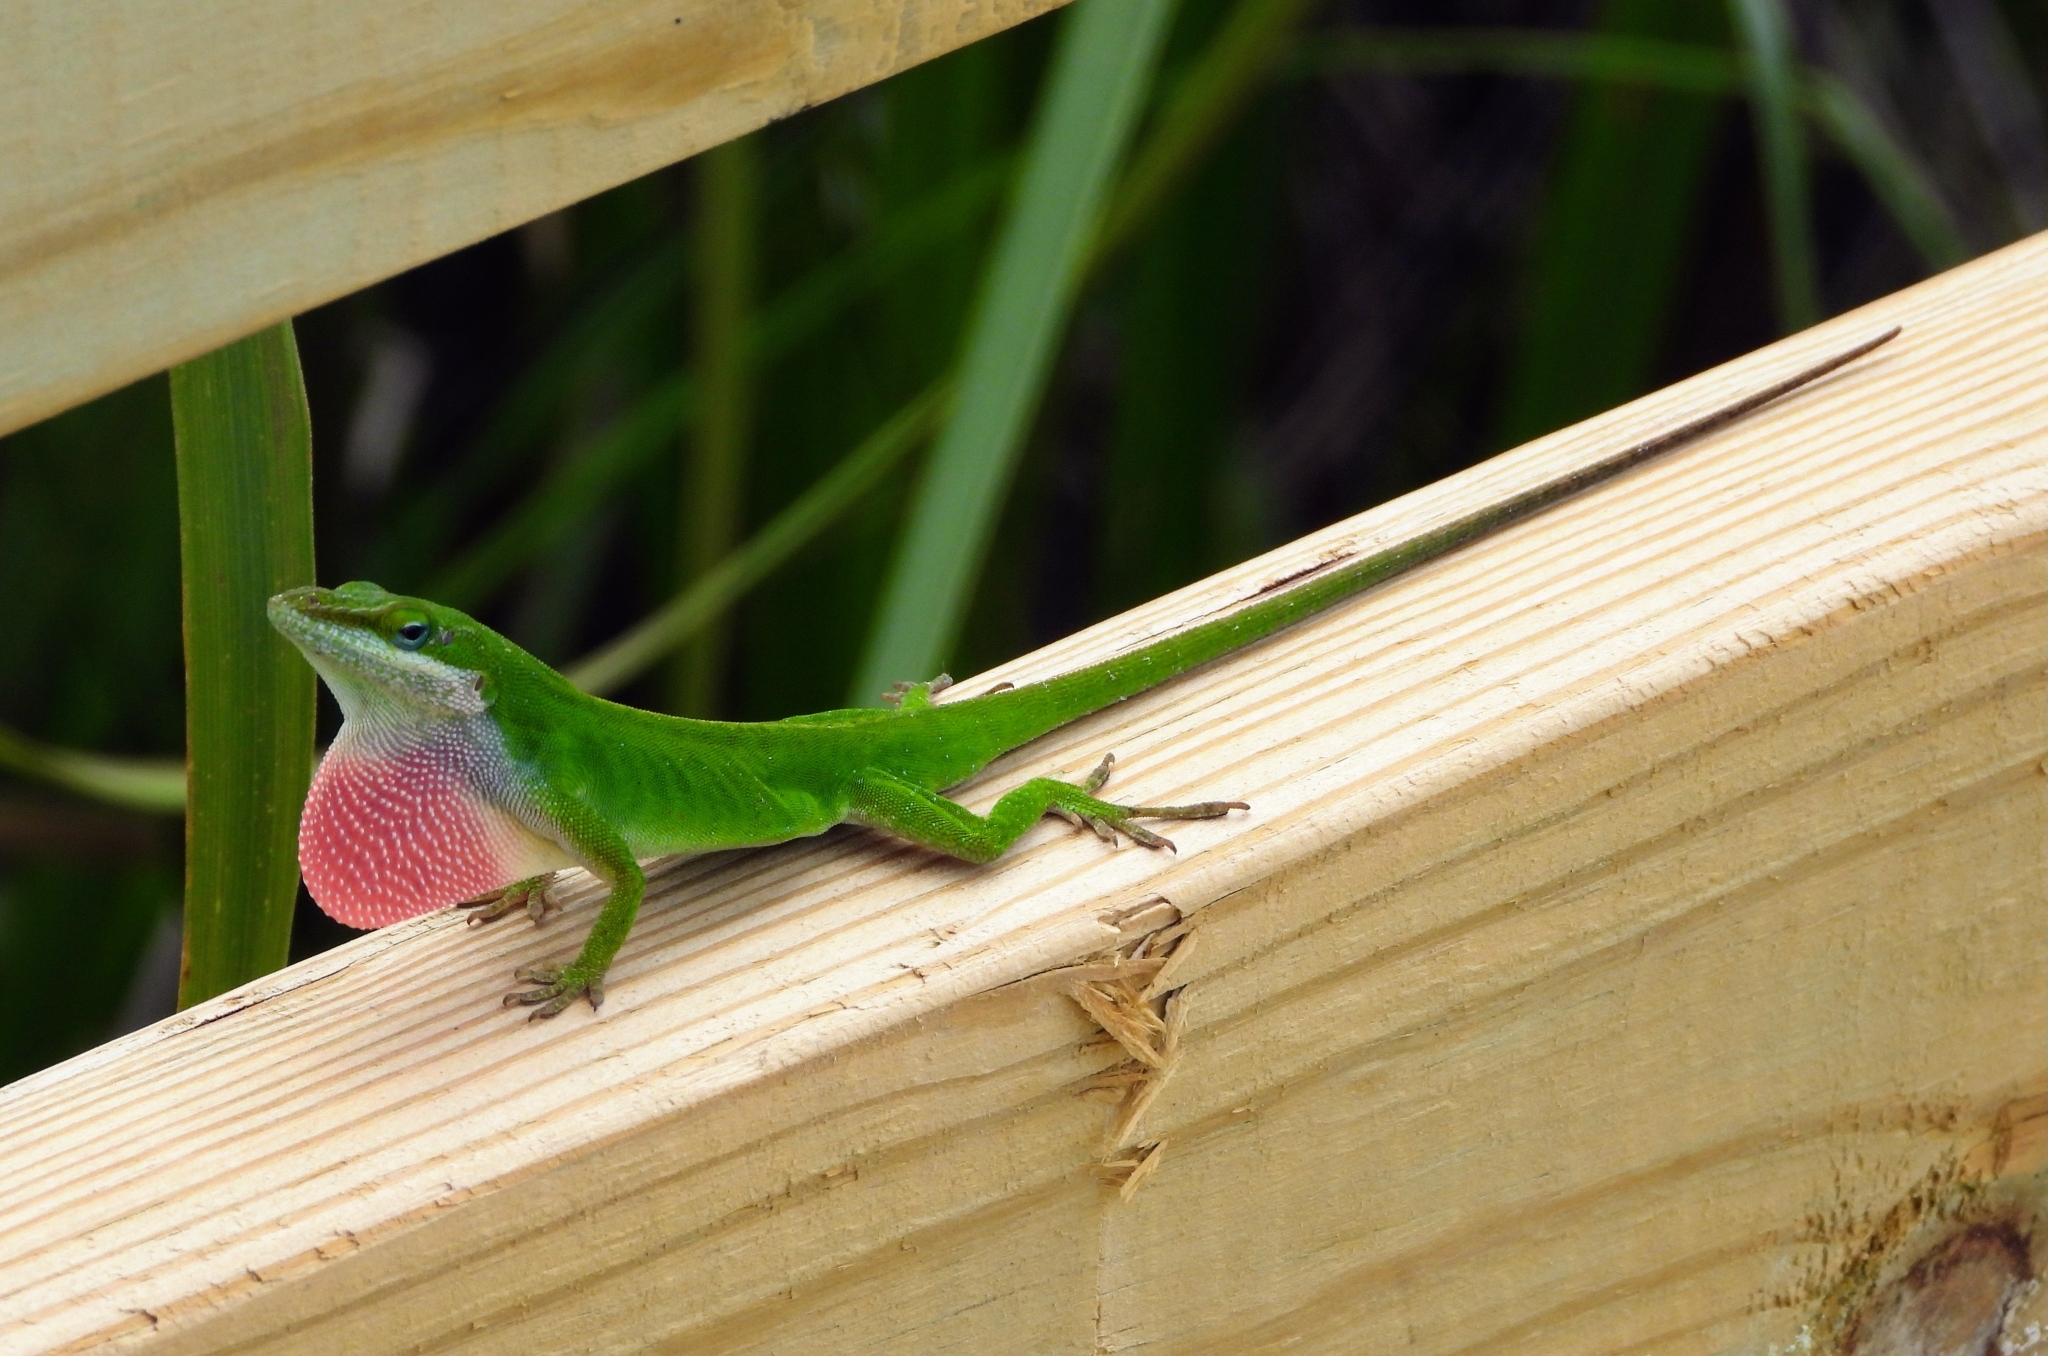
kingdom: Animalia
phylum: Chordata
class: Squamata
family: Dactyloidae
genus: Anolis
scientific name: Anolis carolinensis
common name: Green anole
